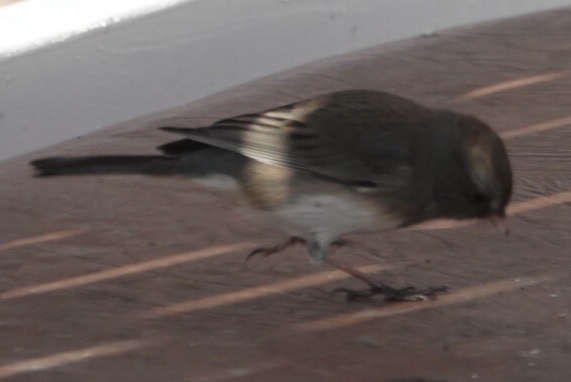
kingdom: Animalia
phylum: Chordata
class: Aves
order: Passeriformes
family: Passerellidae
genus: Junco
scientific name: Junco hyemalis
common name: Dark-eyed junco
